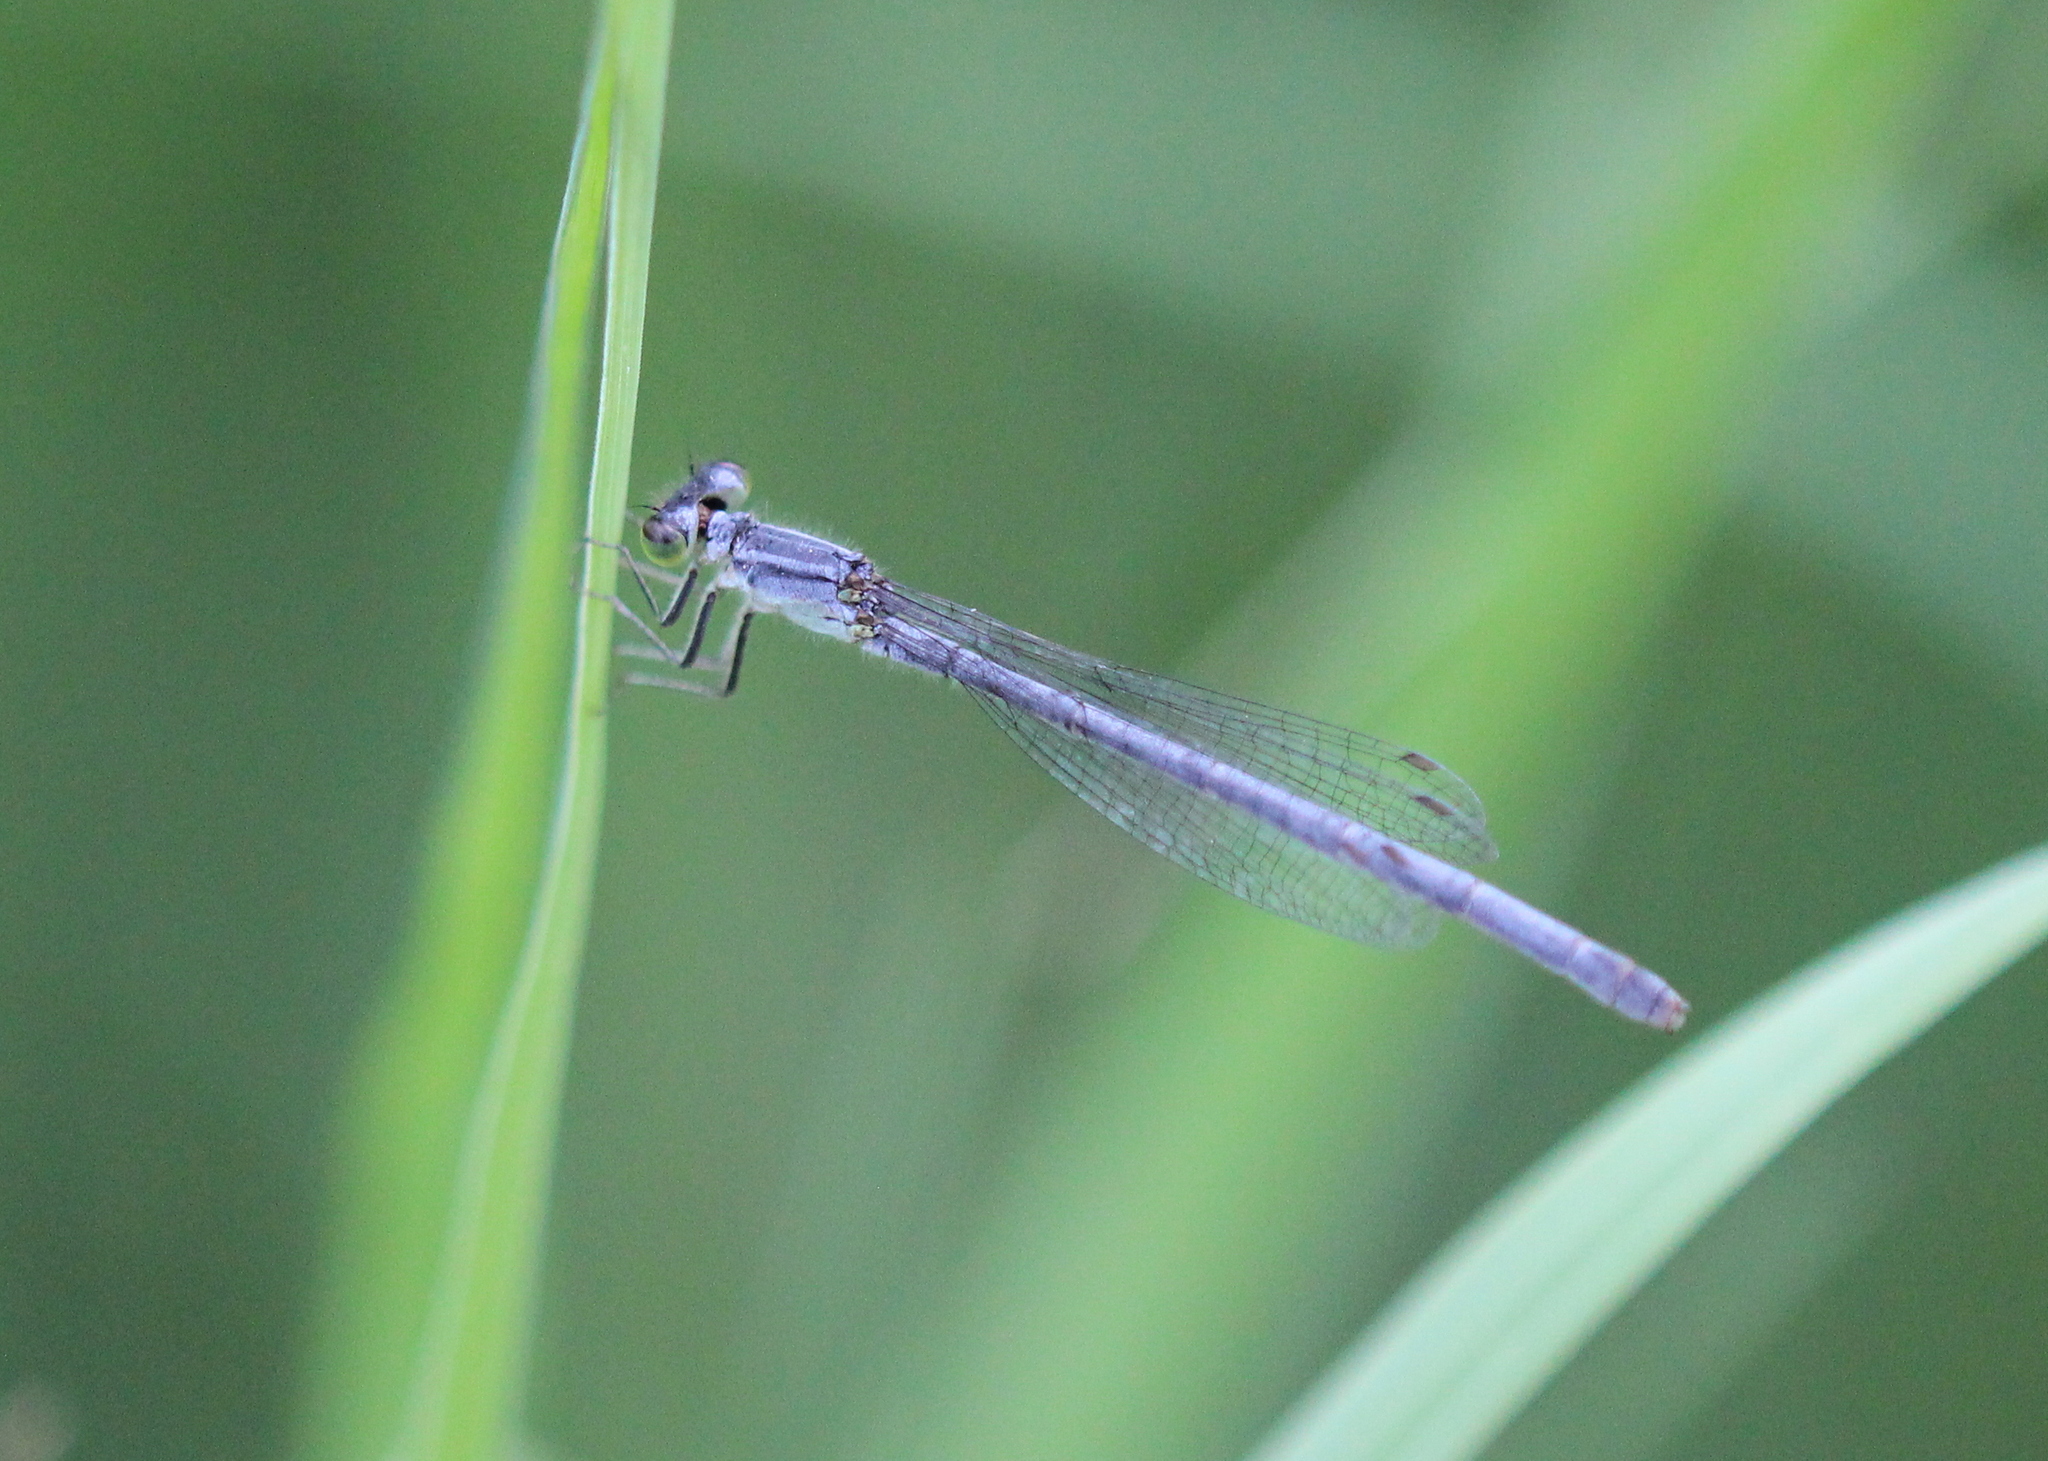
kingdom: Animalia
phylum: Arthropoda
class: Insecta
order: Odonata
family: Coenagrionidae
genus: Ischnura
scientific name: Ischnura verticalis
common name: Eastern forktail
